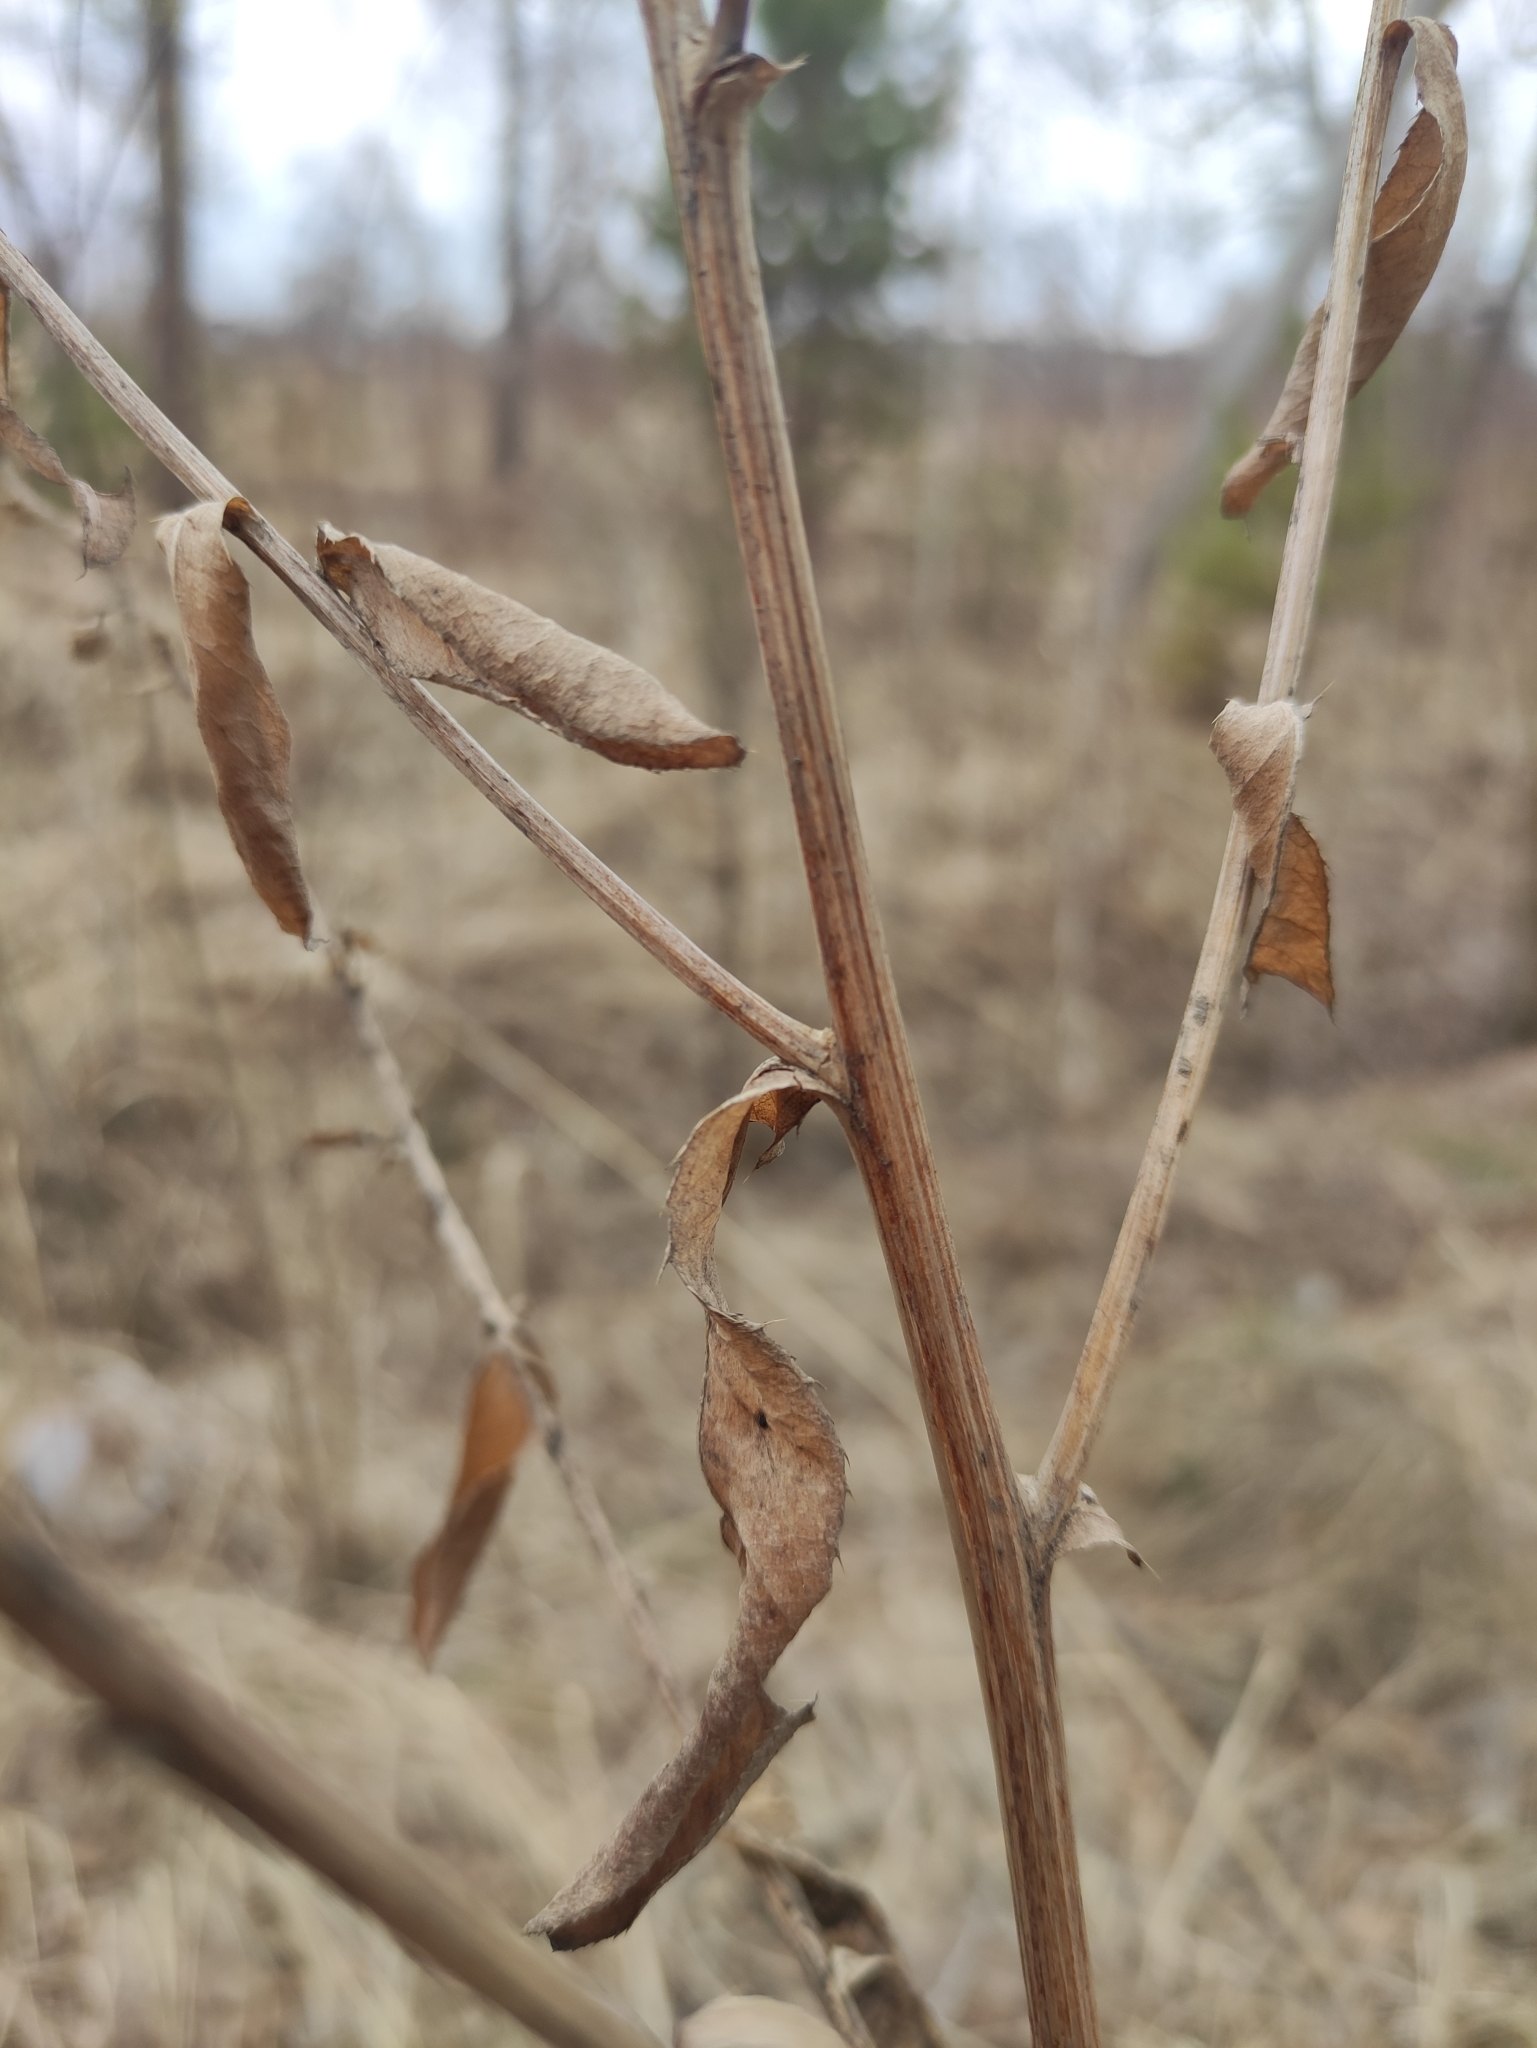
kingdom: Plantae
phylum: Tracheophyta
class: Magnoliopsida
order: Asterales
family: Asteraceae
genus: Cirsium
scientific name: Cirsium arvense
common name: Creeping thistle
